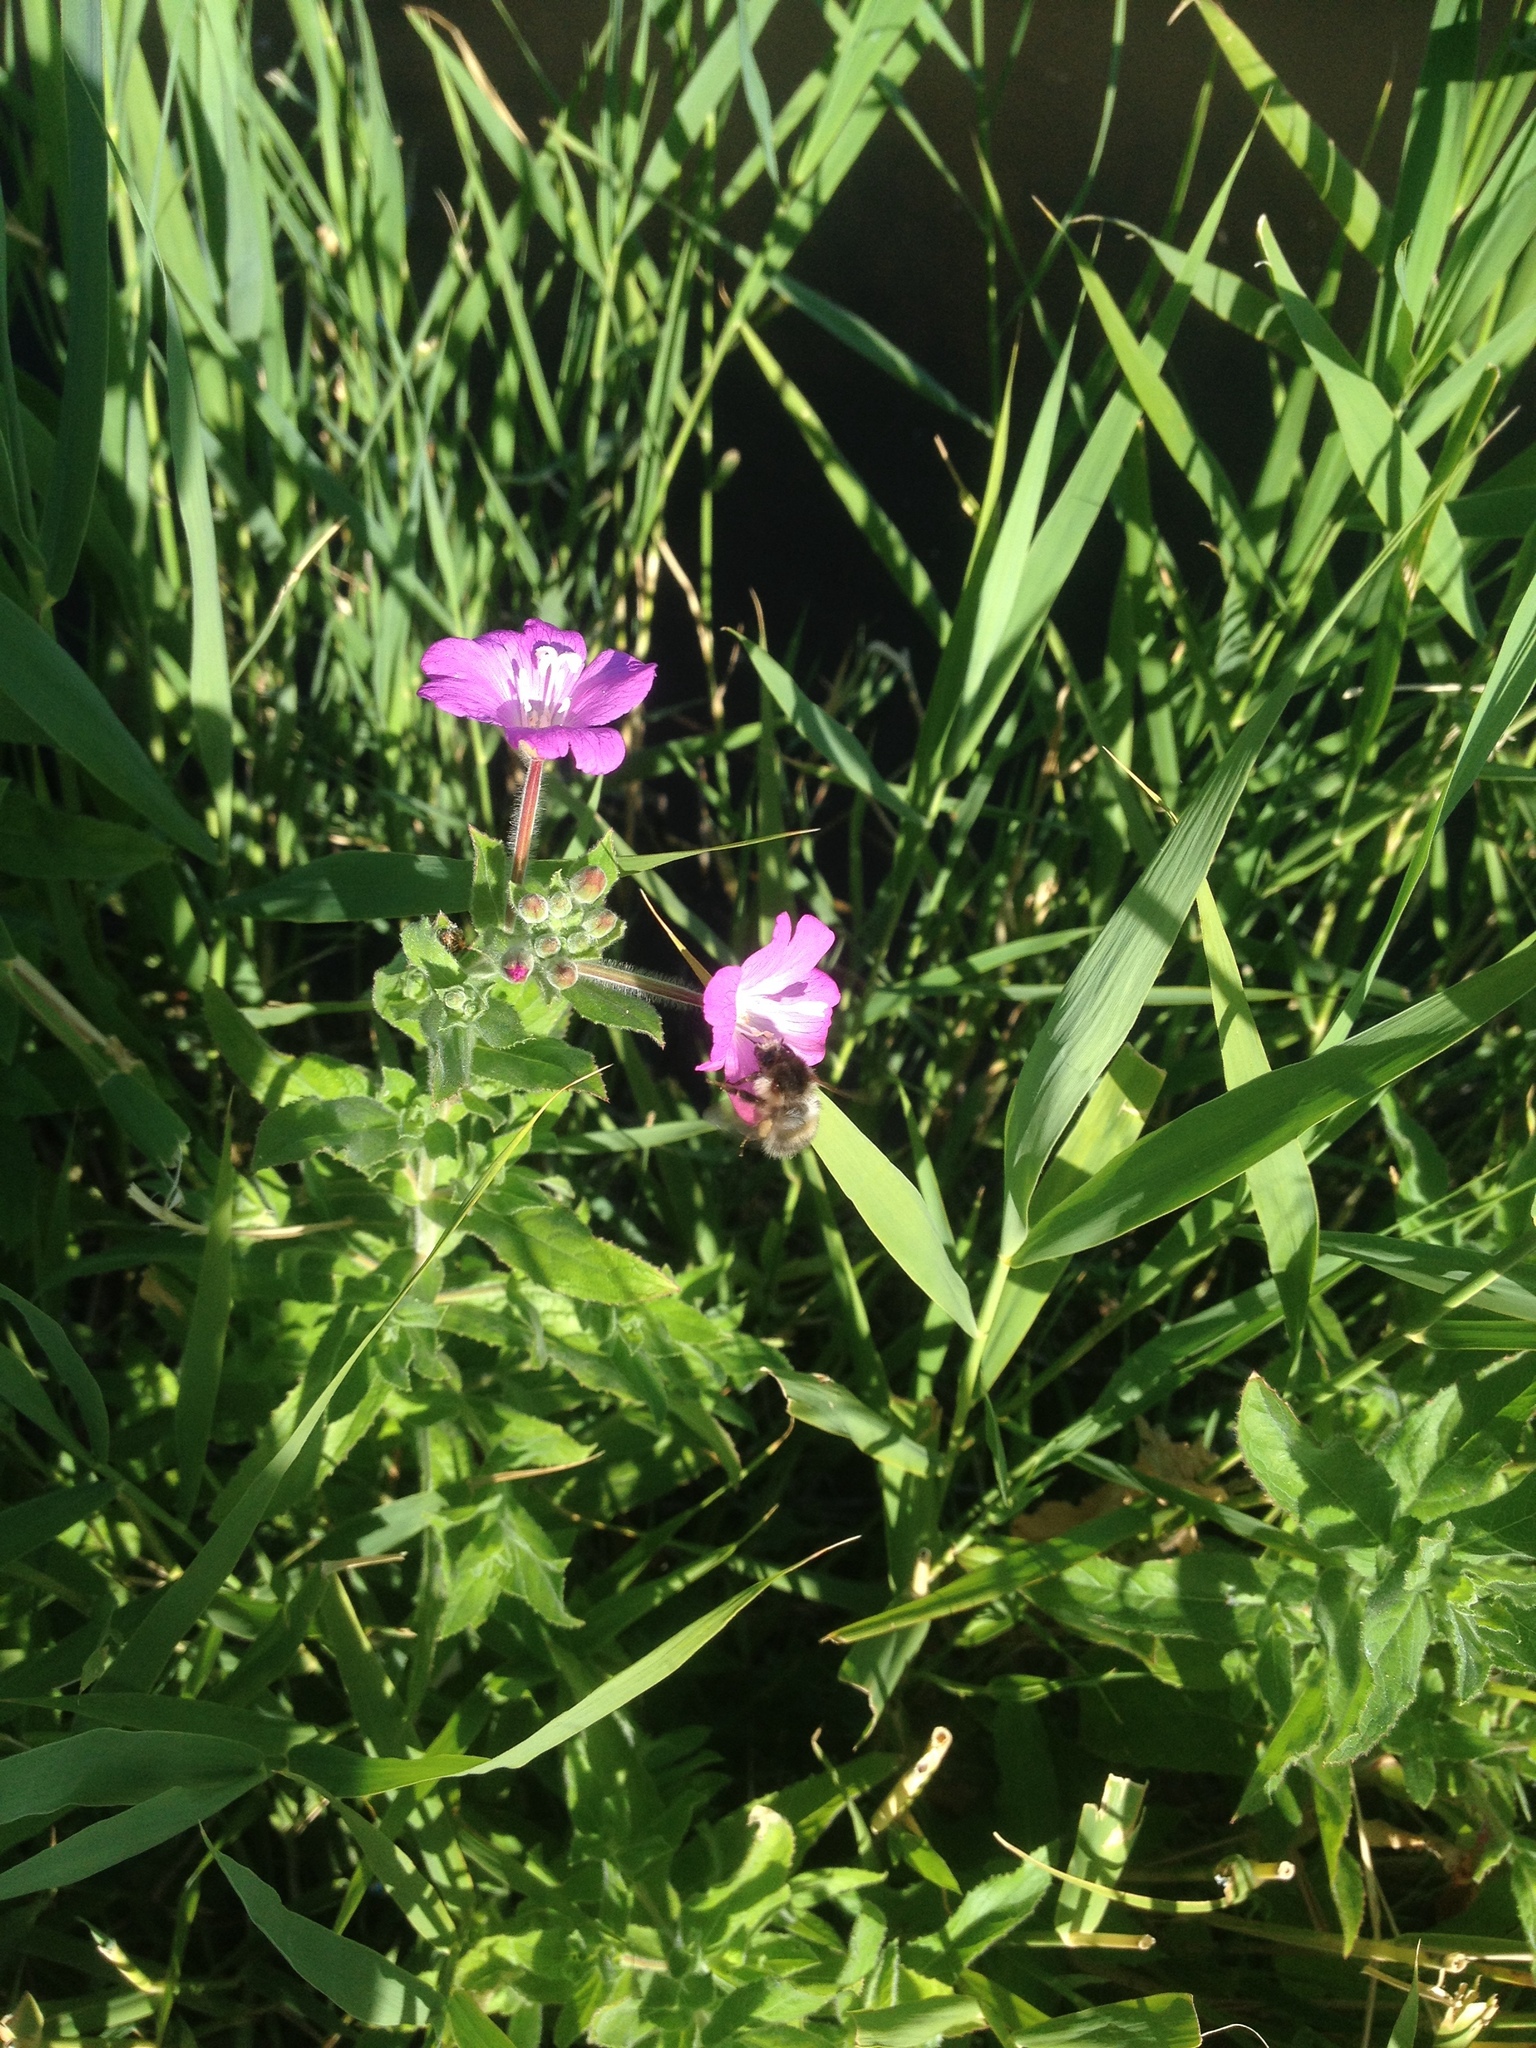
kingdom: Plantae
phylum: Tracheophyta
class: Magnoliopsida
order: Myrtales
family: Onagraceae
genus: Epilobium
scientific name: Epilobium hirsutum
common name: Great willowherb
